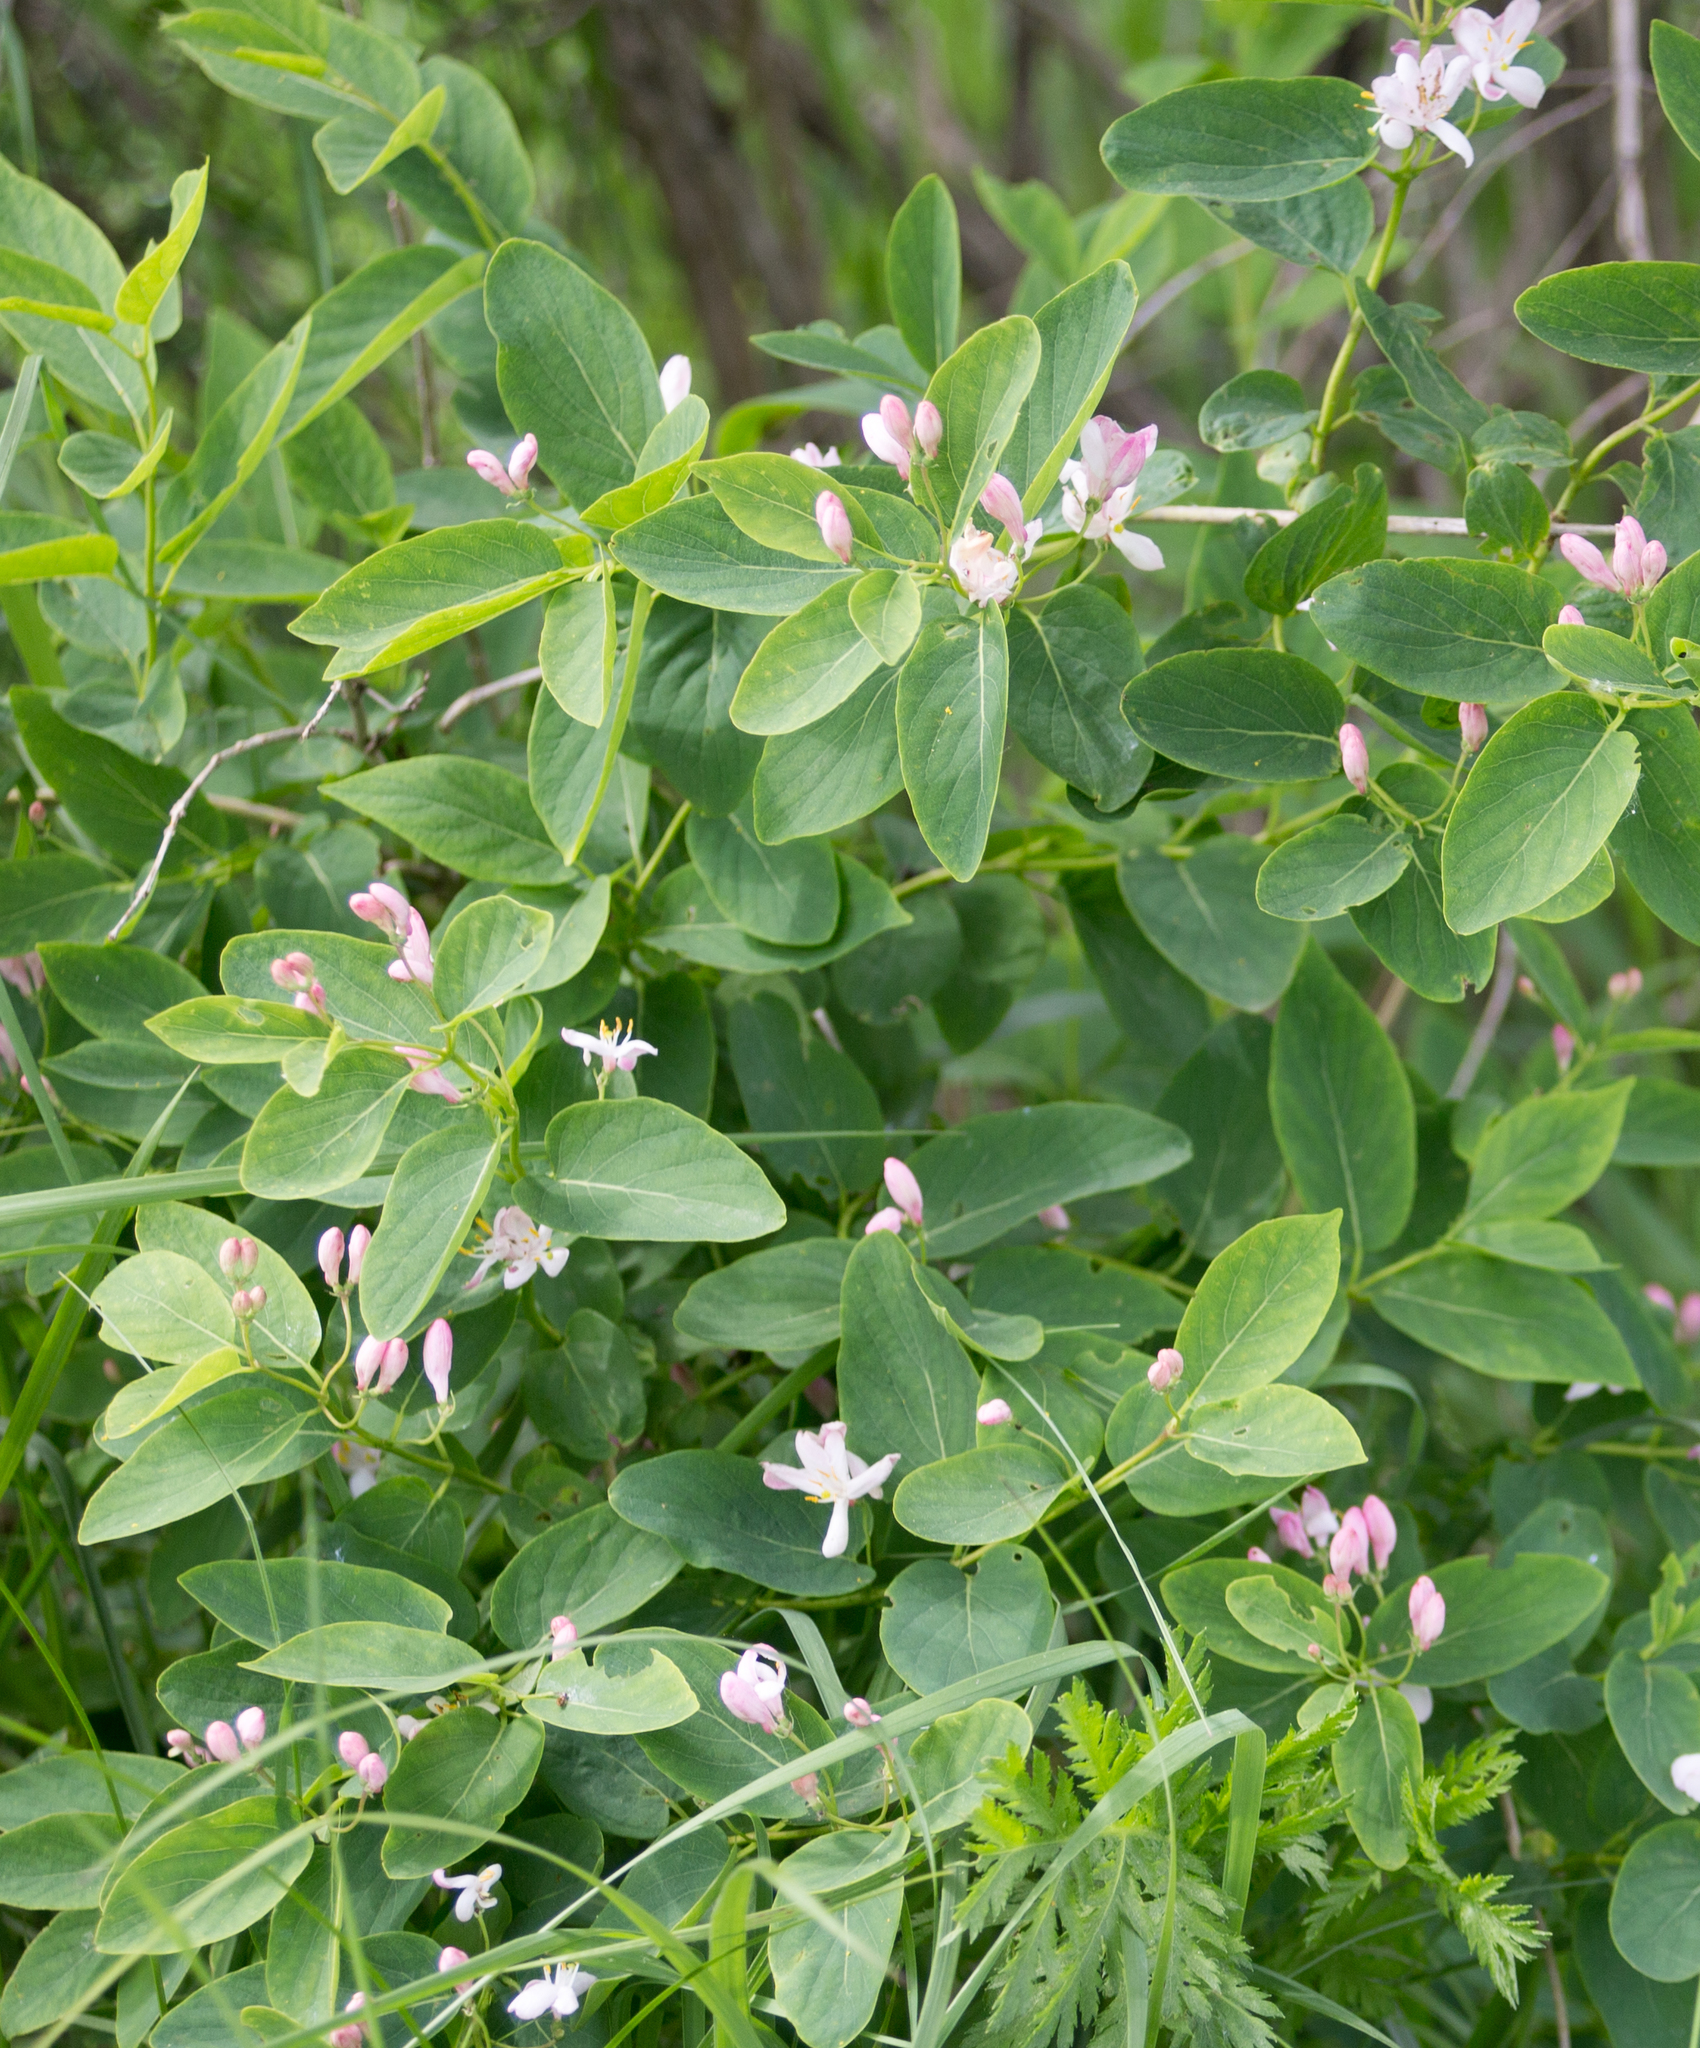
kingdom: Plantae
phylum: Tracheophyta
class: Magnoliopsida
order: Dipsacales
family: Caprifoliaceae
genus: Lonicera
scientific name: Lonicera tatarica
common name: Tatarian honeysuckle
